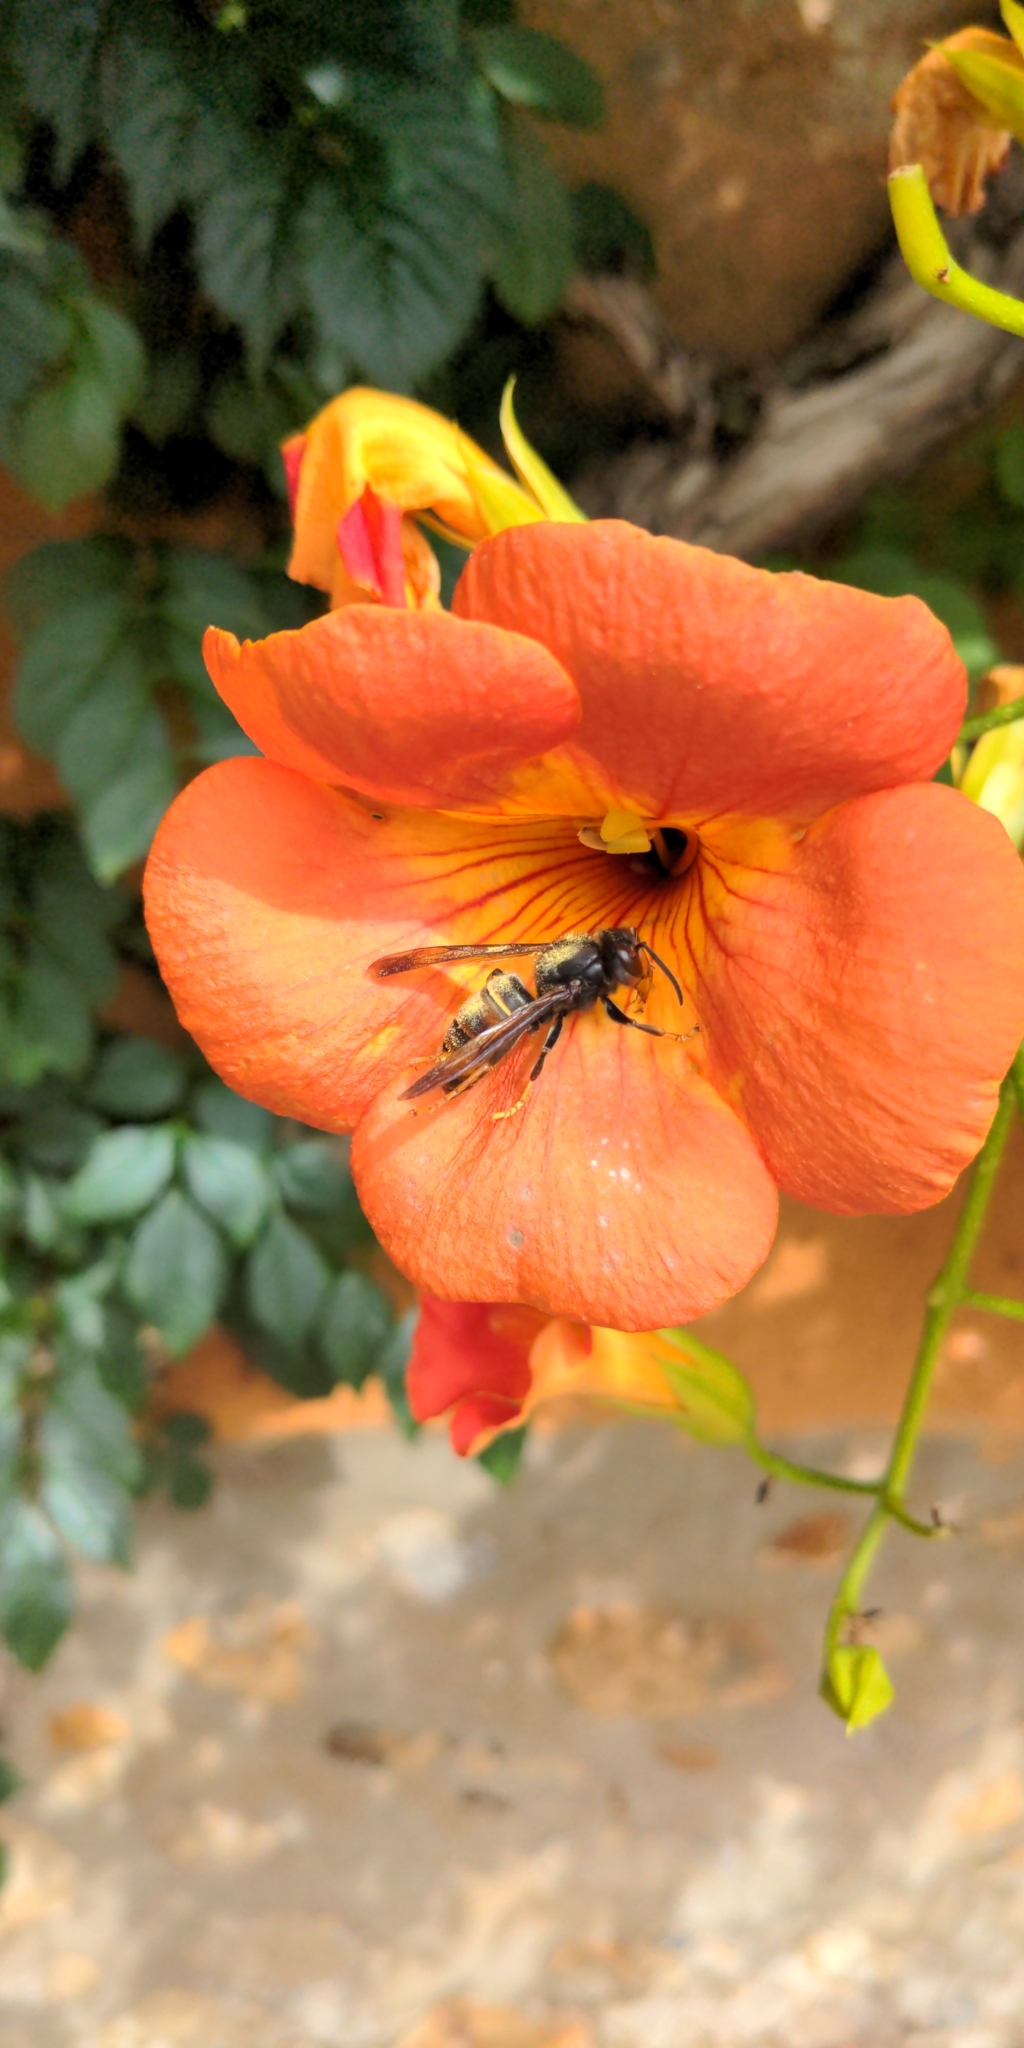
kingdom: Animalia
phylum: Arthropoda
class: Insecta
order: Hymenoptera
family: Vespidae
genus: Vespa
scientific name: Vespa velutina
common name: Asian hornet
